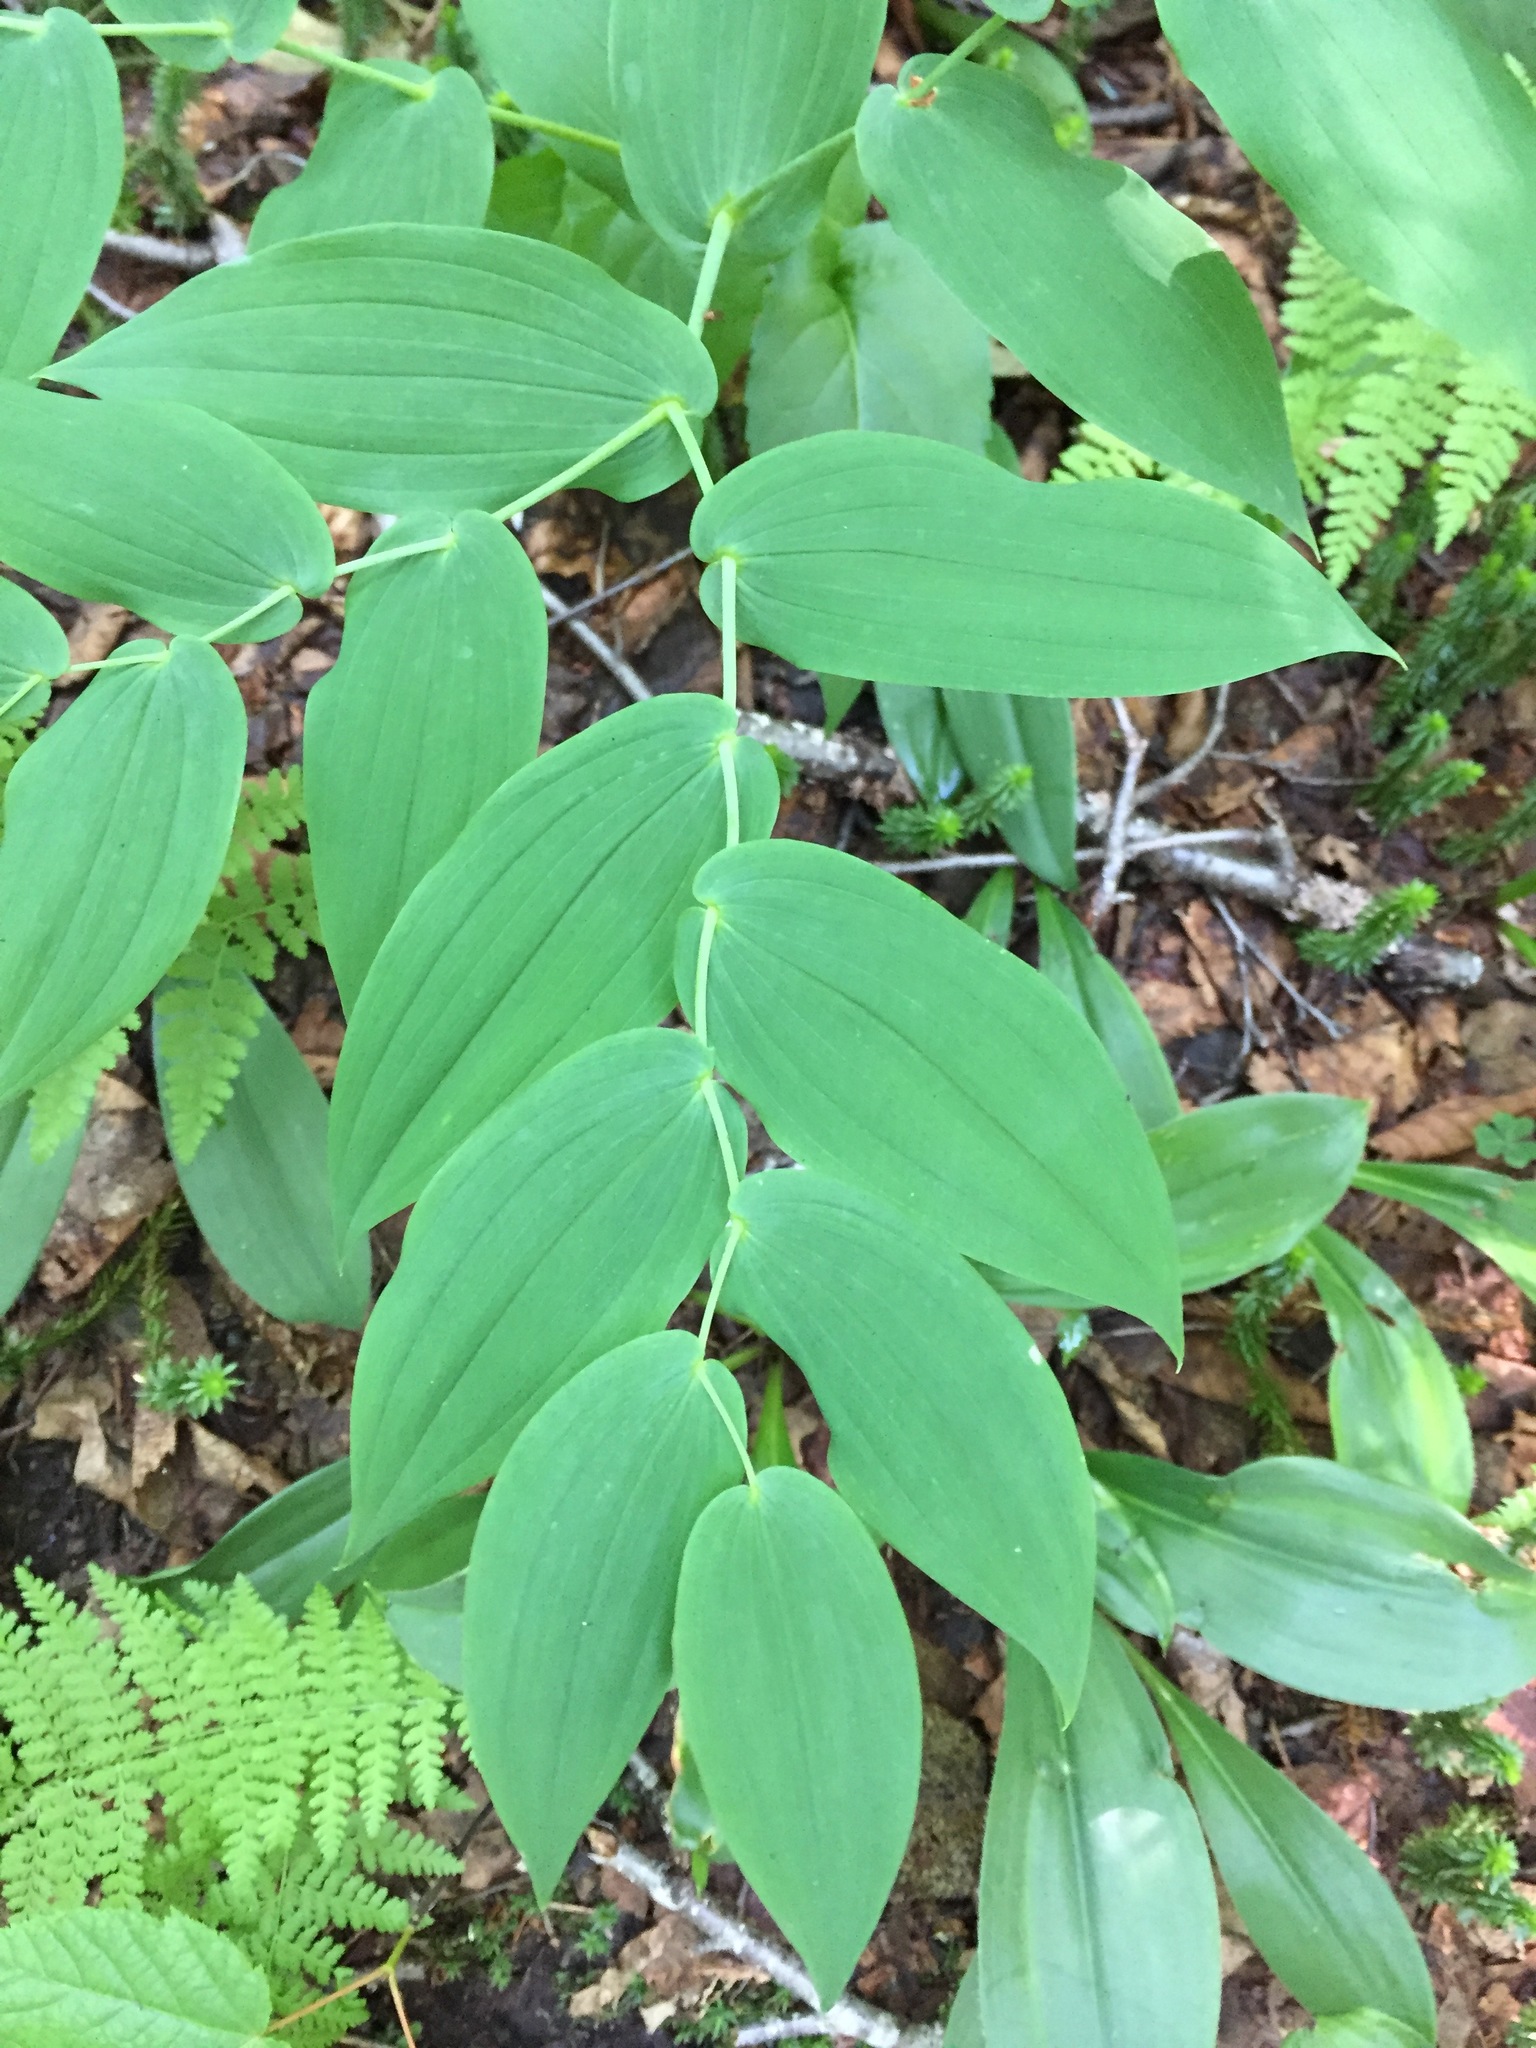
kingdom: Plantae
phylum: Tracheophyta
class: Liliopsida
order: Liliales
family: Liliaceae
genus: Streptopus
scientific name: Streptopus amplexifolius
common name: Clasp twisted stalk
